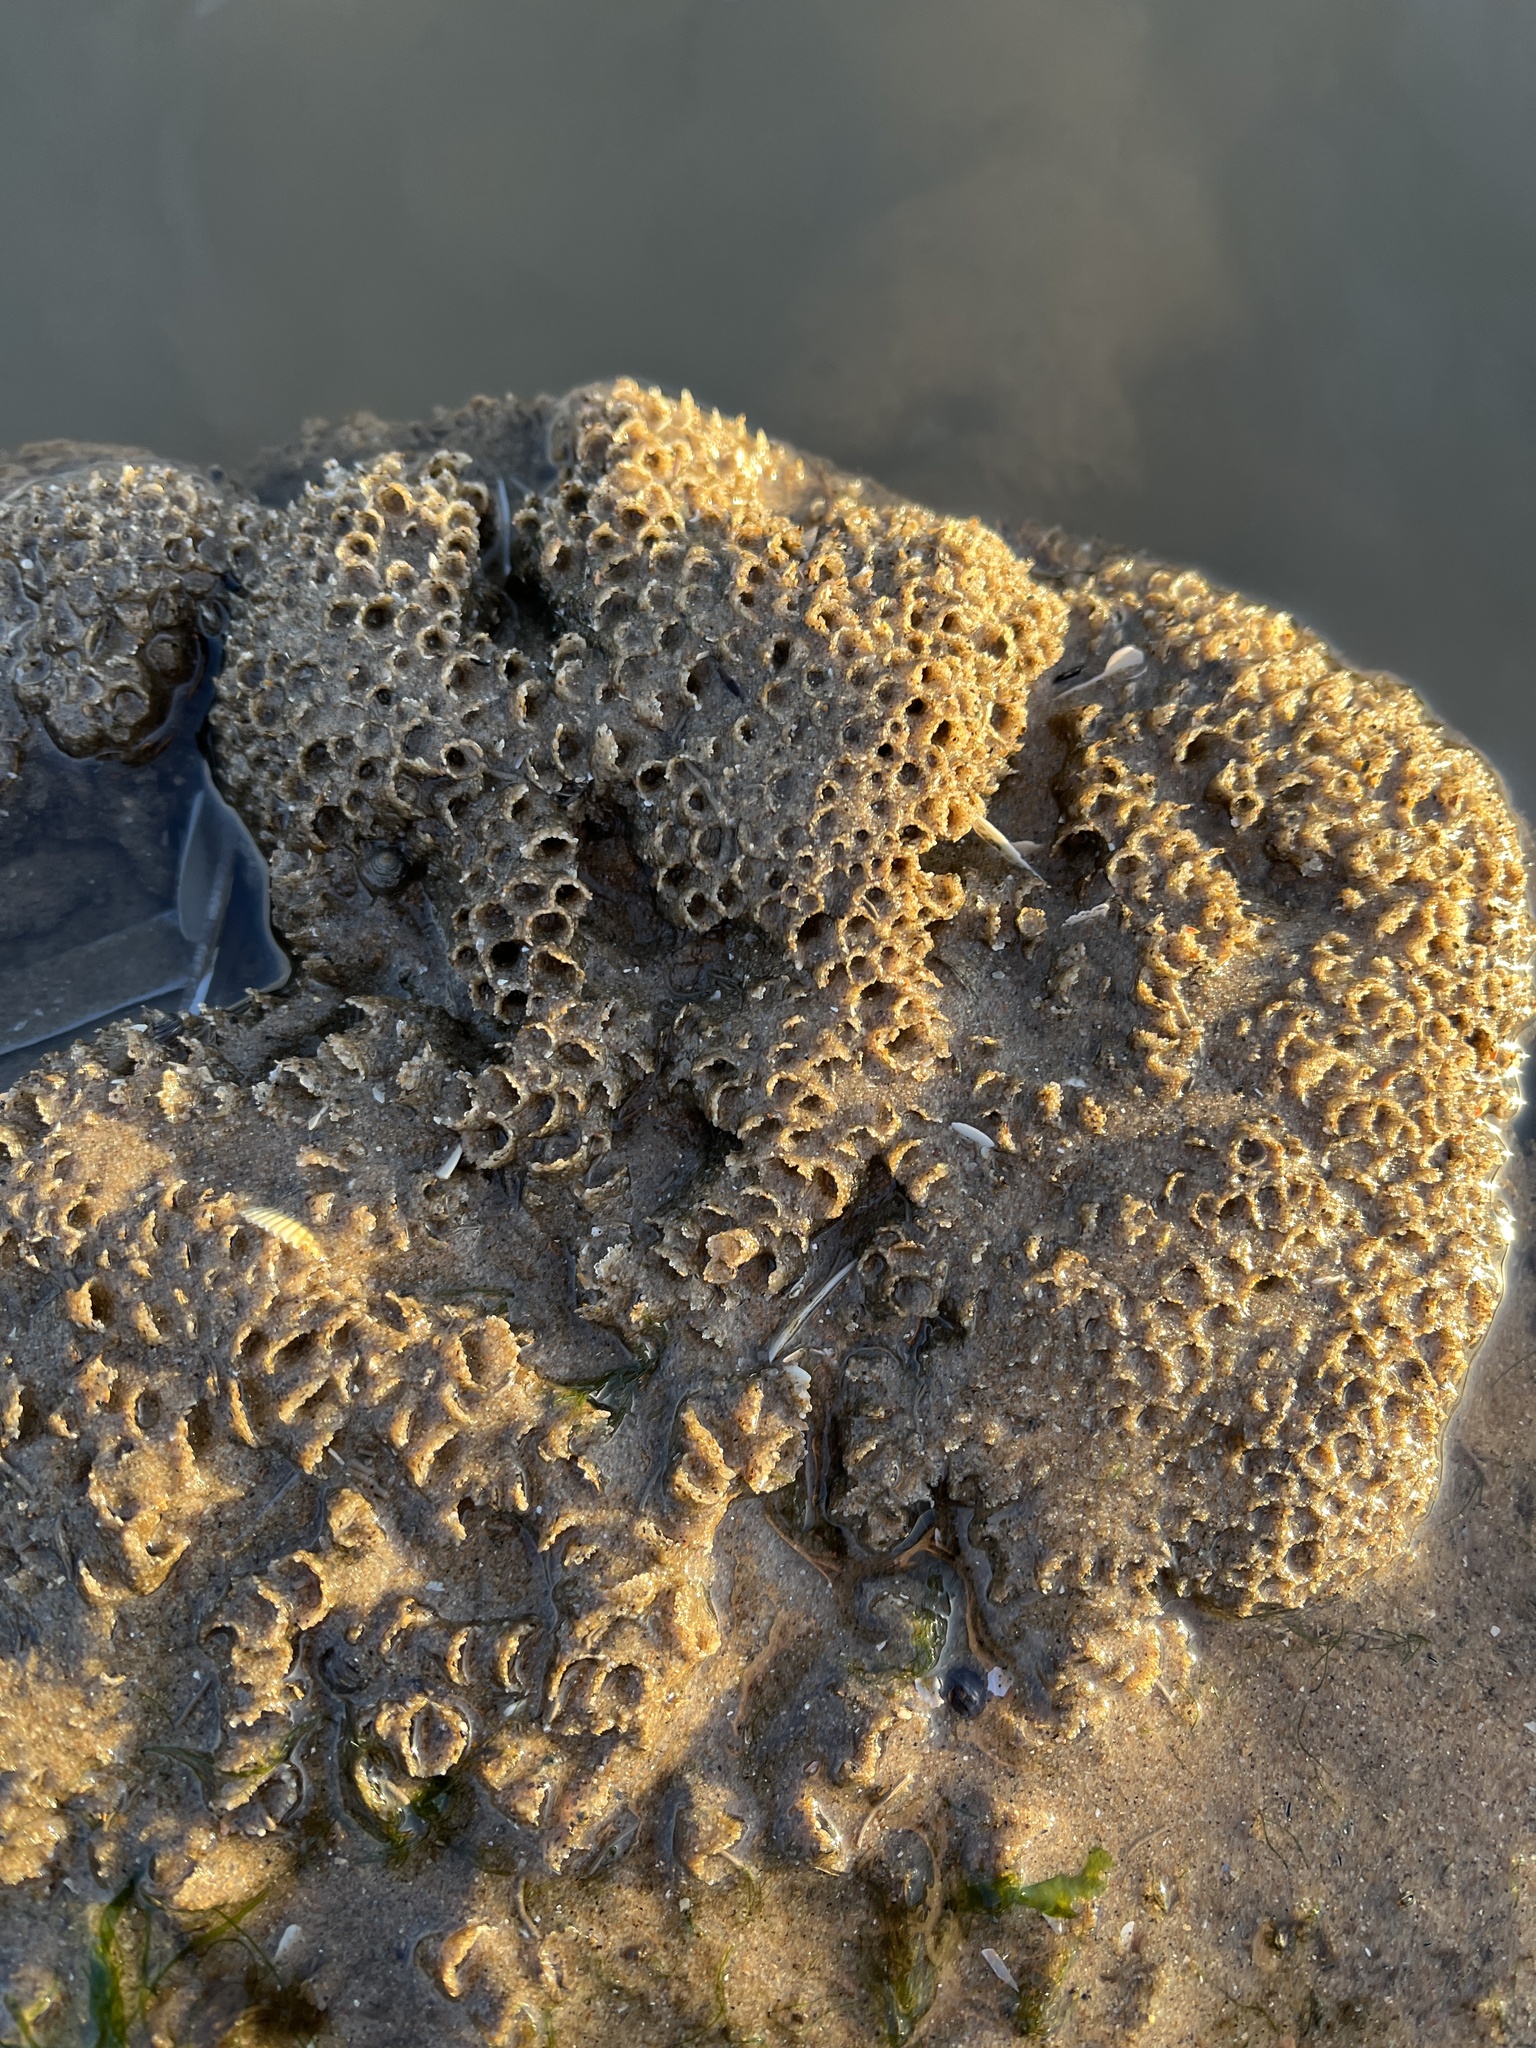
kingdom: Animalia
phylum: Annelida
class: Polychaeta
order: Sabellida
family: Sabellariidae
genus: Sabellaria
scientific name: Sabellaria alveolata
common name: Honeycomb worm
